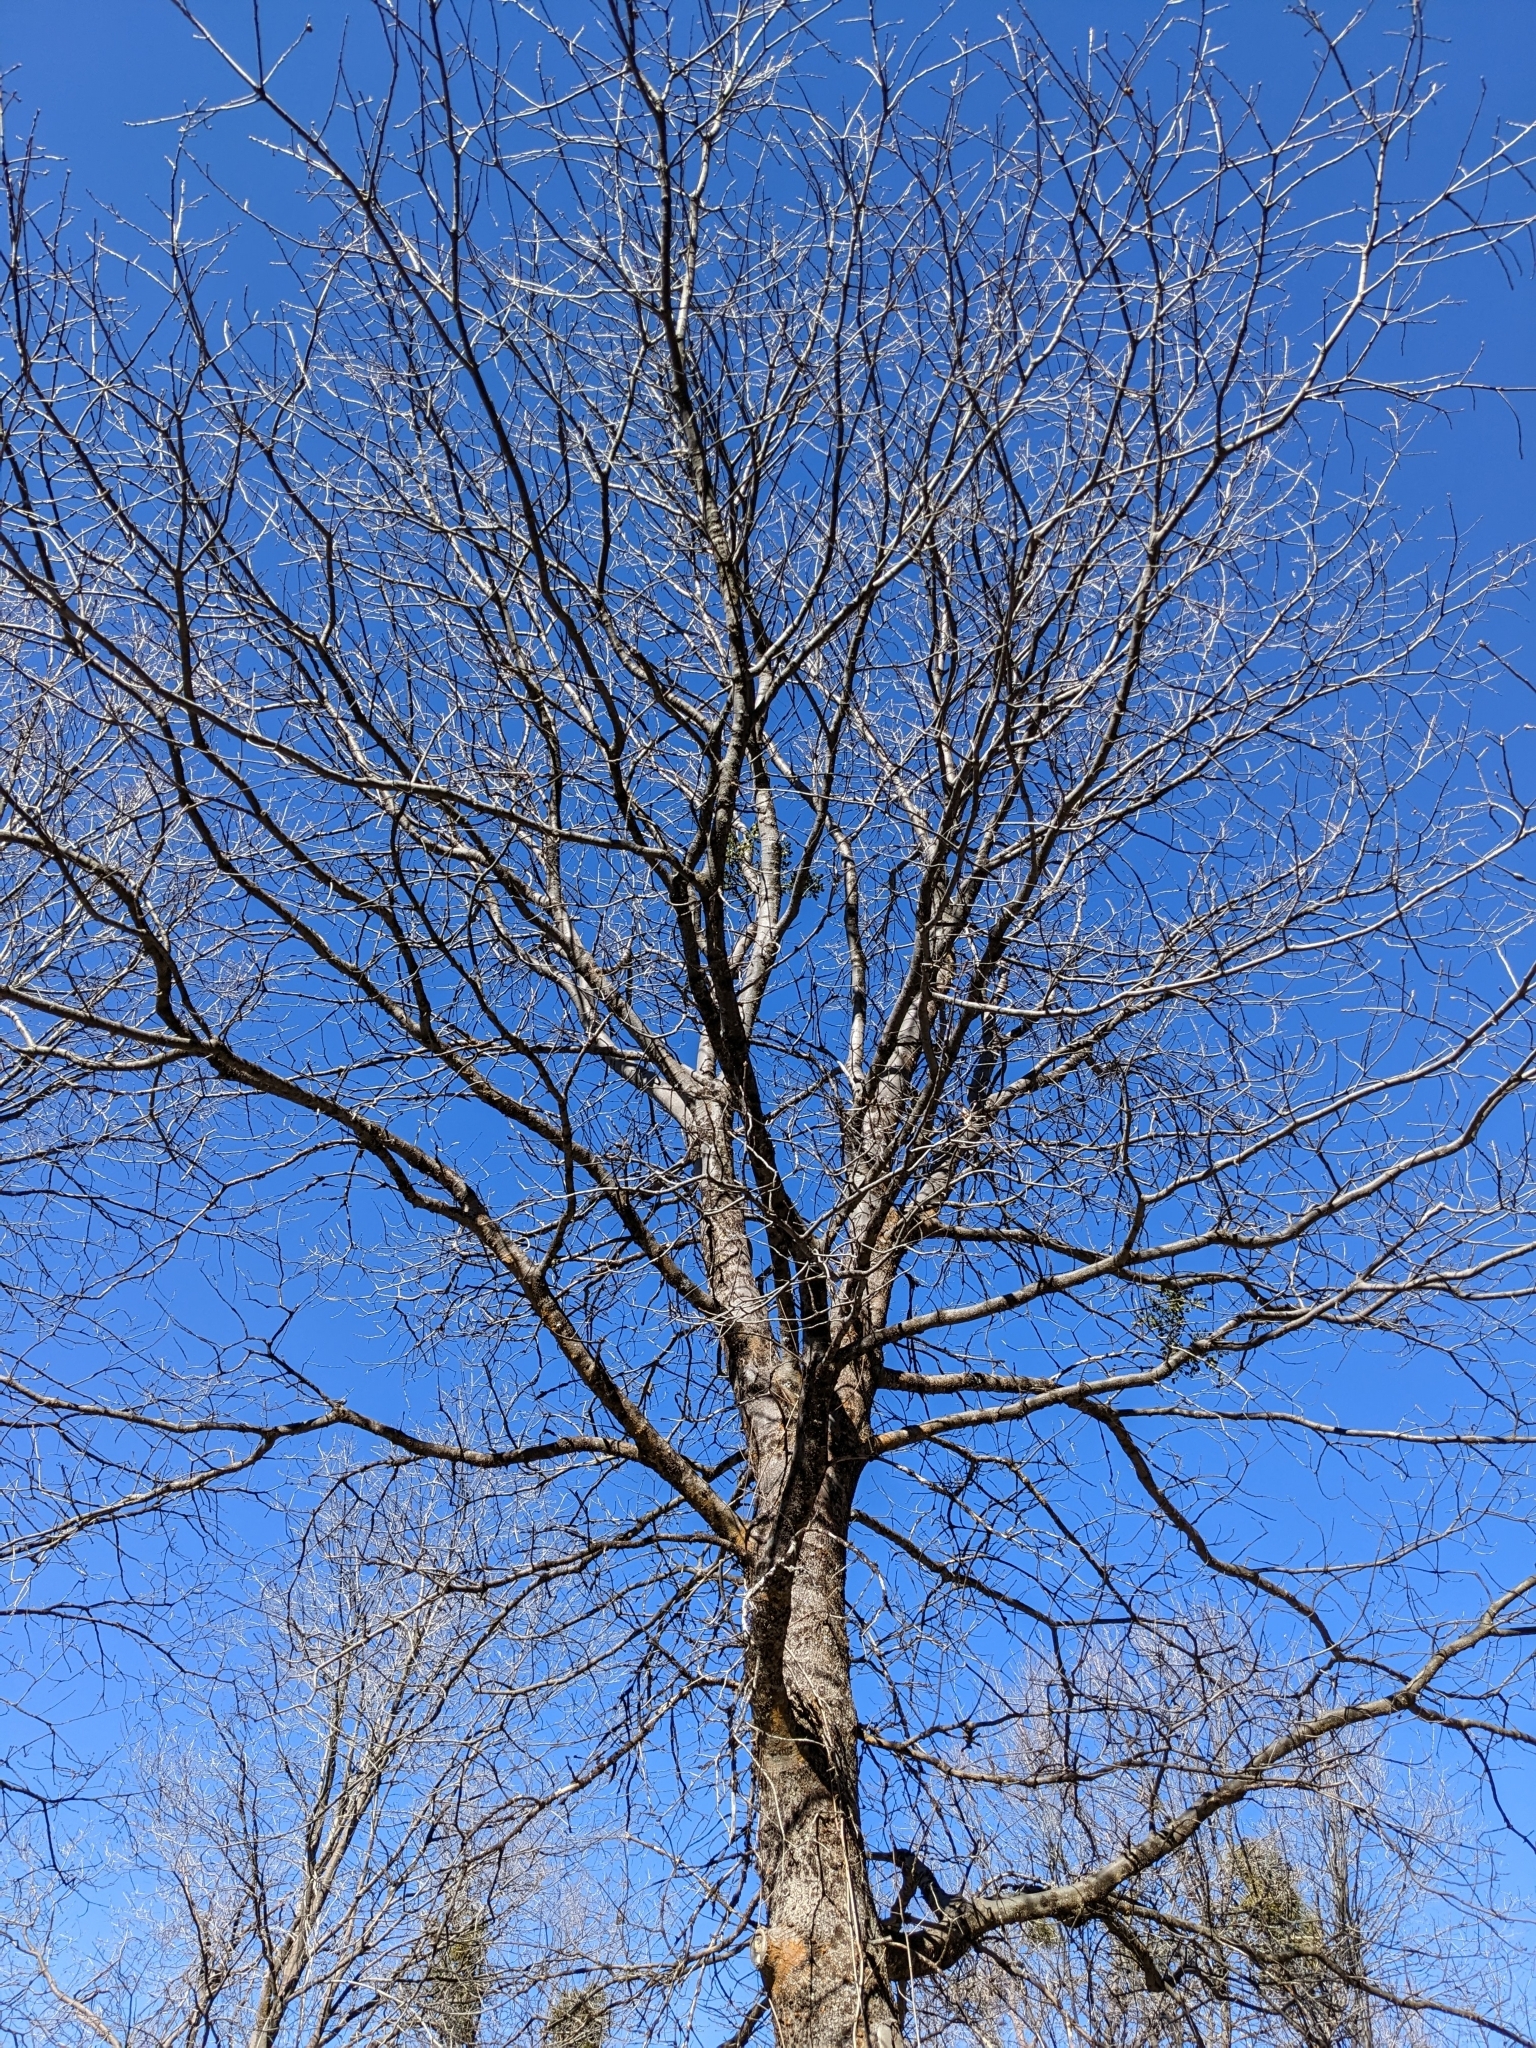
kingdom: Plantae
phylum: Tracheophyta
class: Magnoliopsida
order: Fagales
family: Fagaceae
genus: Quercus
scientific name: Quercus kelloggii
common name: California black oak
